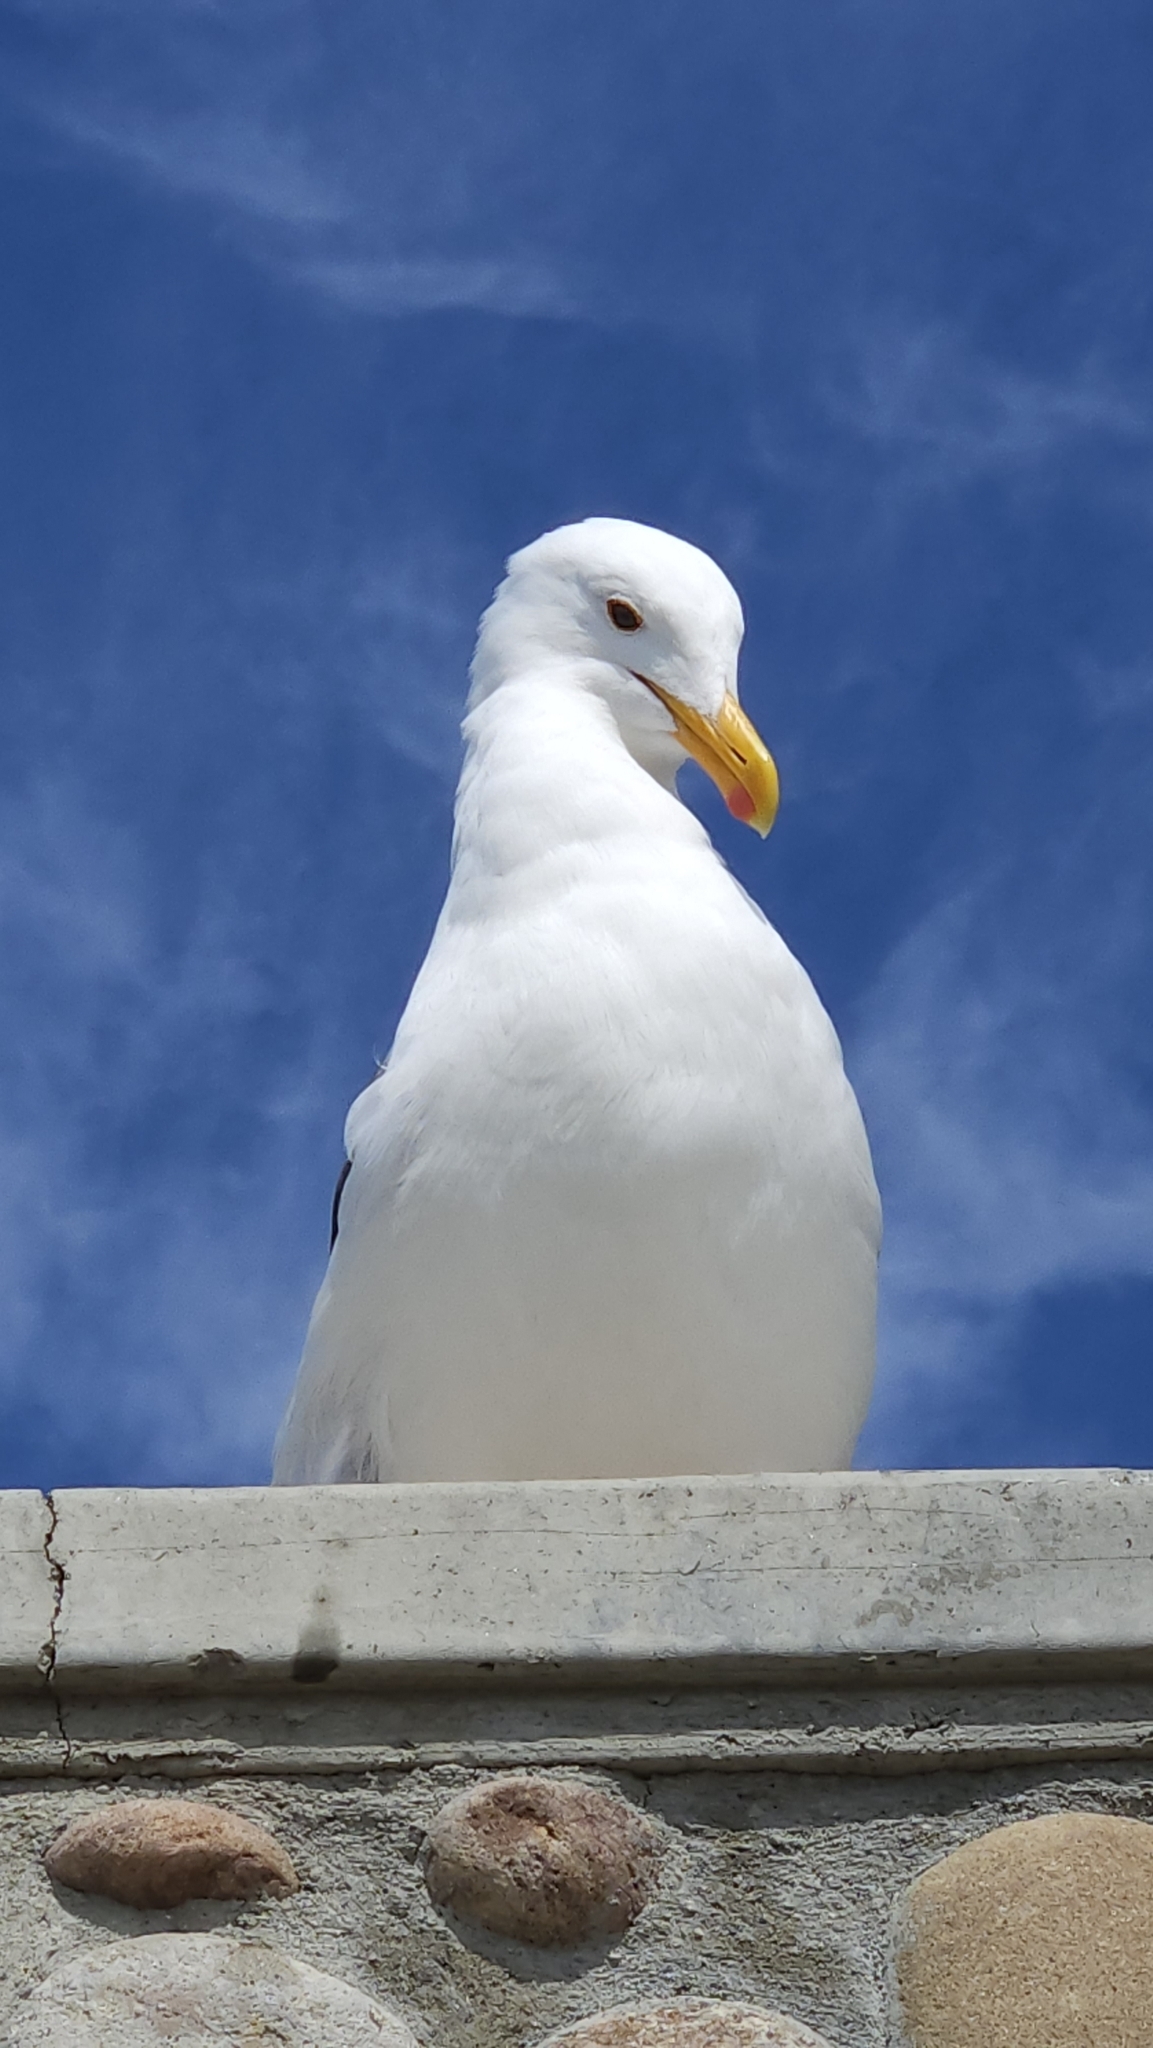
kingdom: Animalia
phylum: Chordata
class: Aves
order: Charadriiformes
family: Laridae
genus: Larus
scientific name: Larus occidentalis
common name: Western gull
